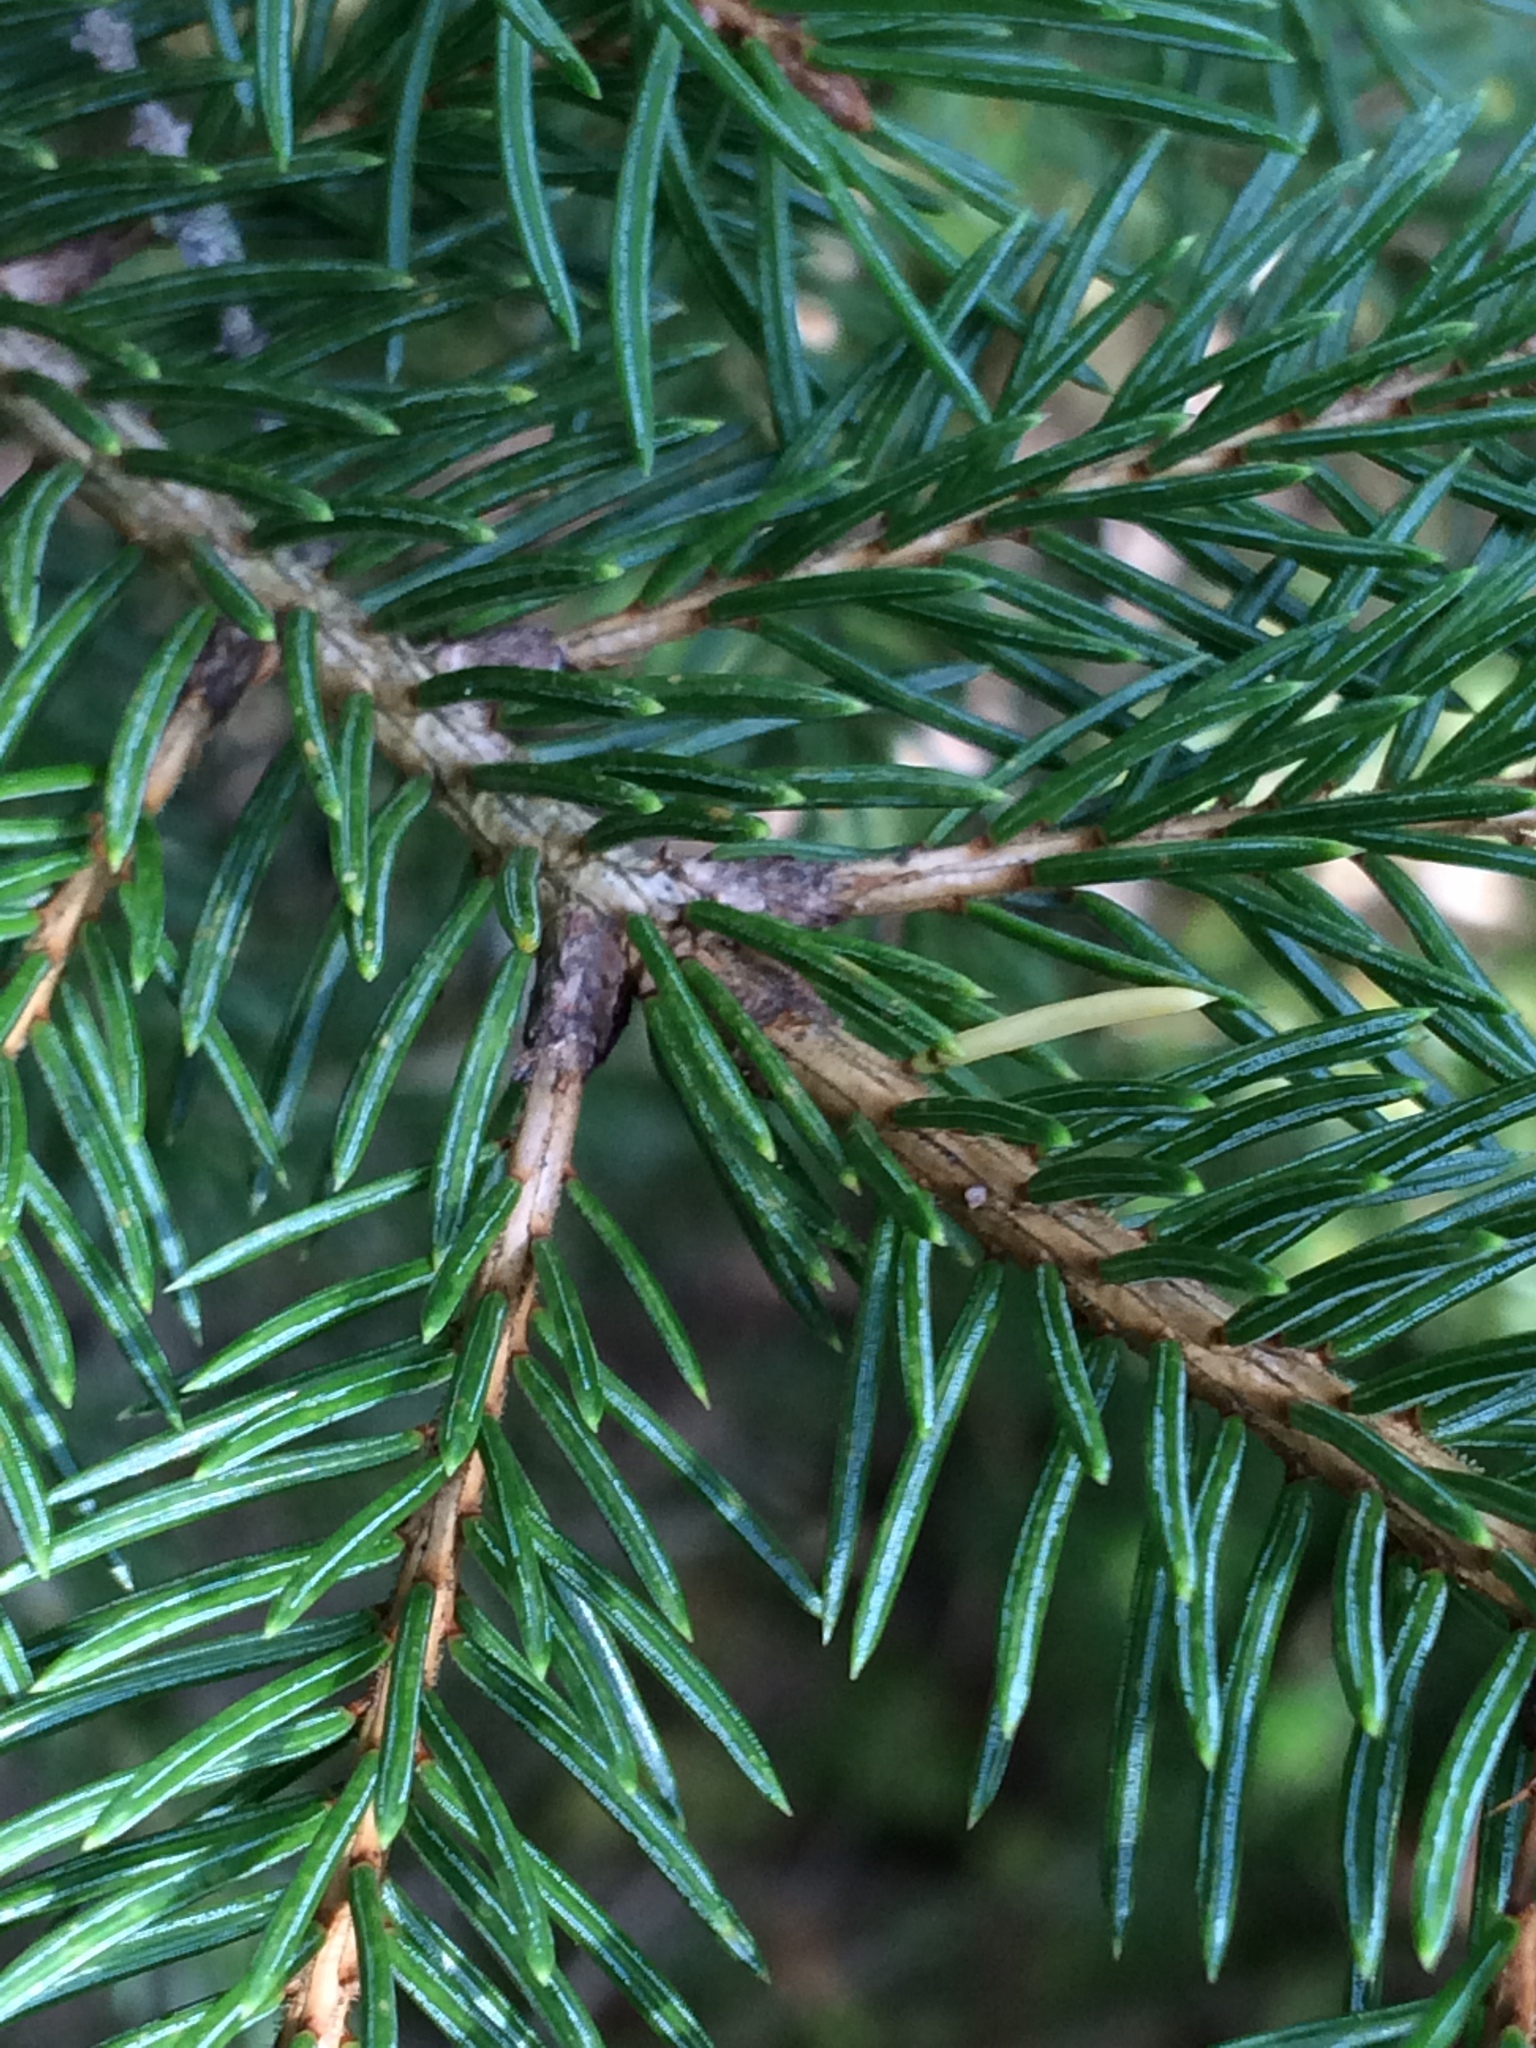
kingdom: Plantae
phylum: Tracheophyta
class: Pinopsida
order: Pinales
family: Pinaceae
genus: Picea
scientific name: Picea mariana
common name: Black spruce
